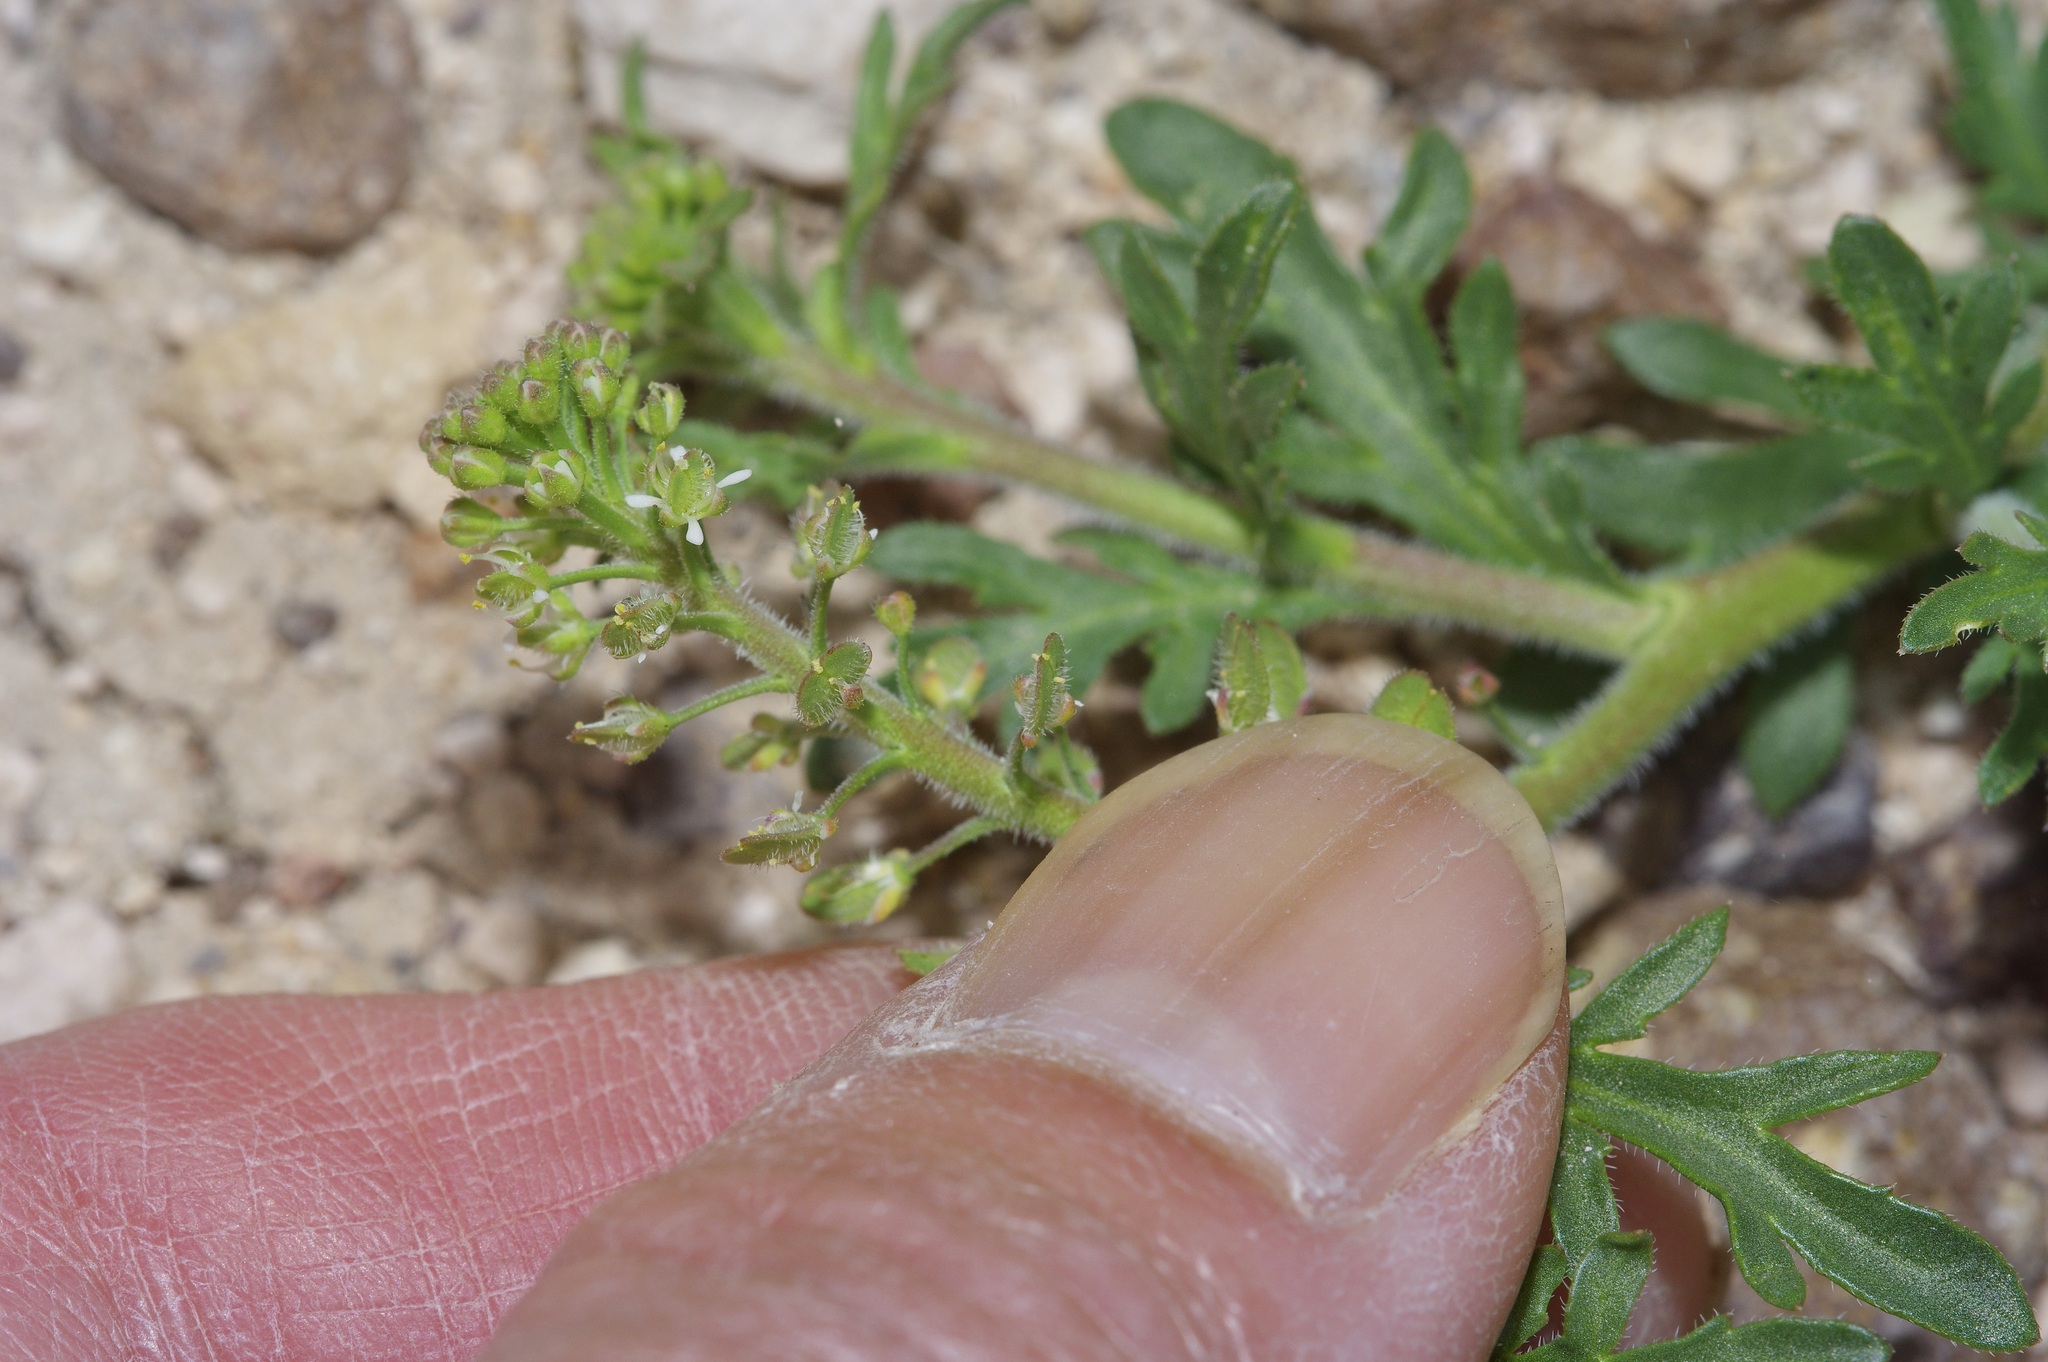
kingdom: Plantae
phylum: Tracheophyta
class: Magnoliopsida
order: Brassicales
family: Brassicaceae
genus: Lepidium
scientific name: Lepidium lasiocarpum
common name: Hairy-pod pepperwort
